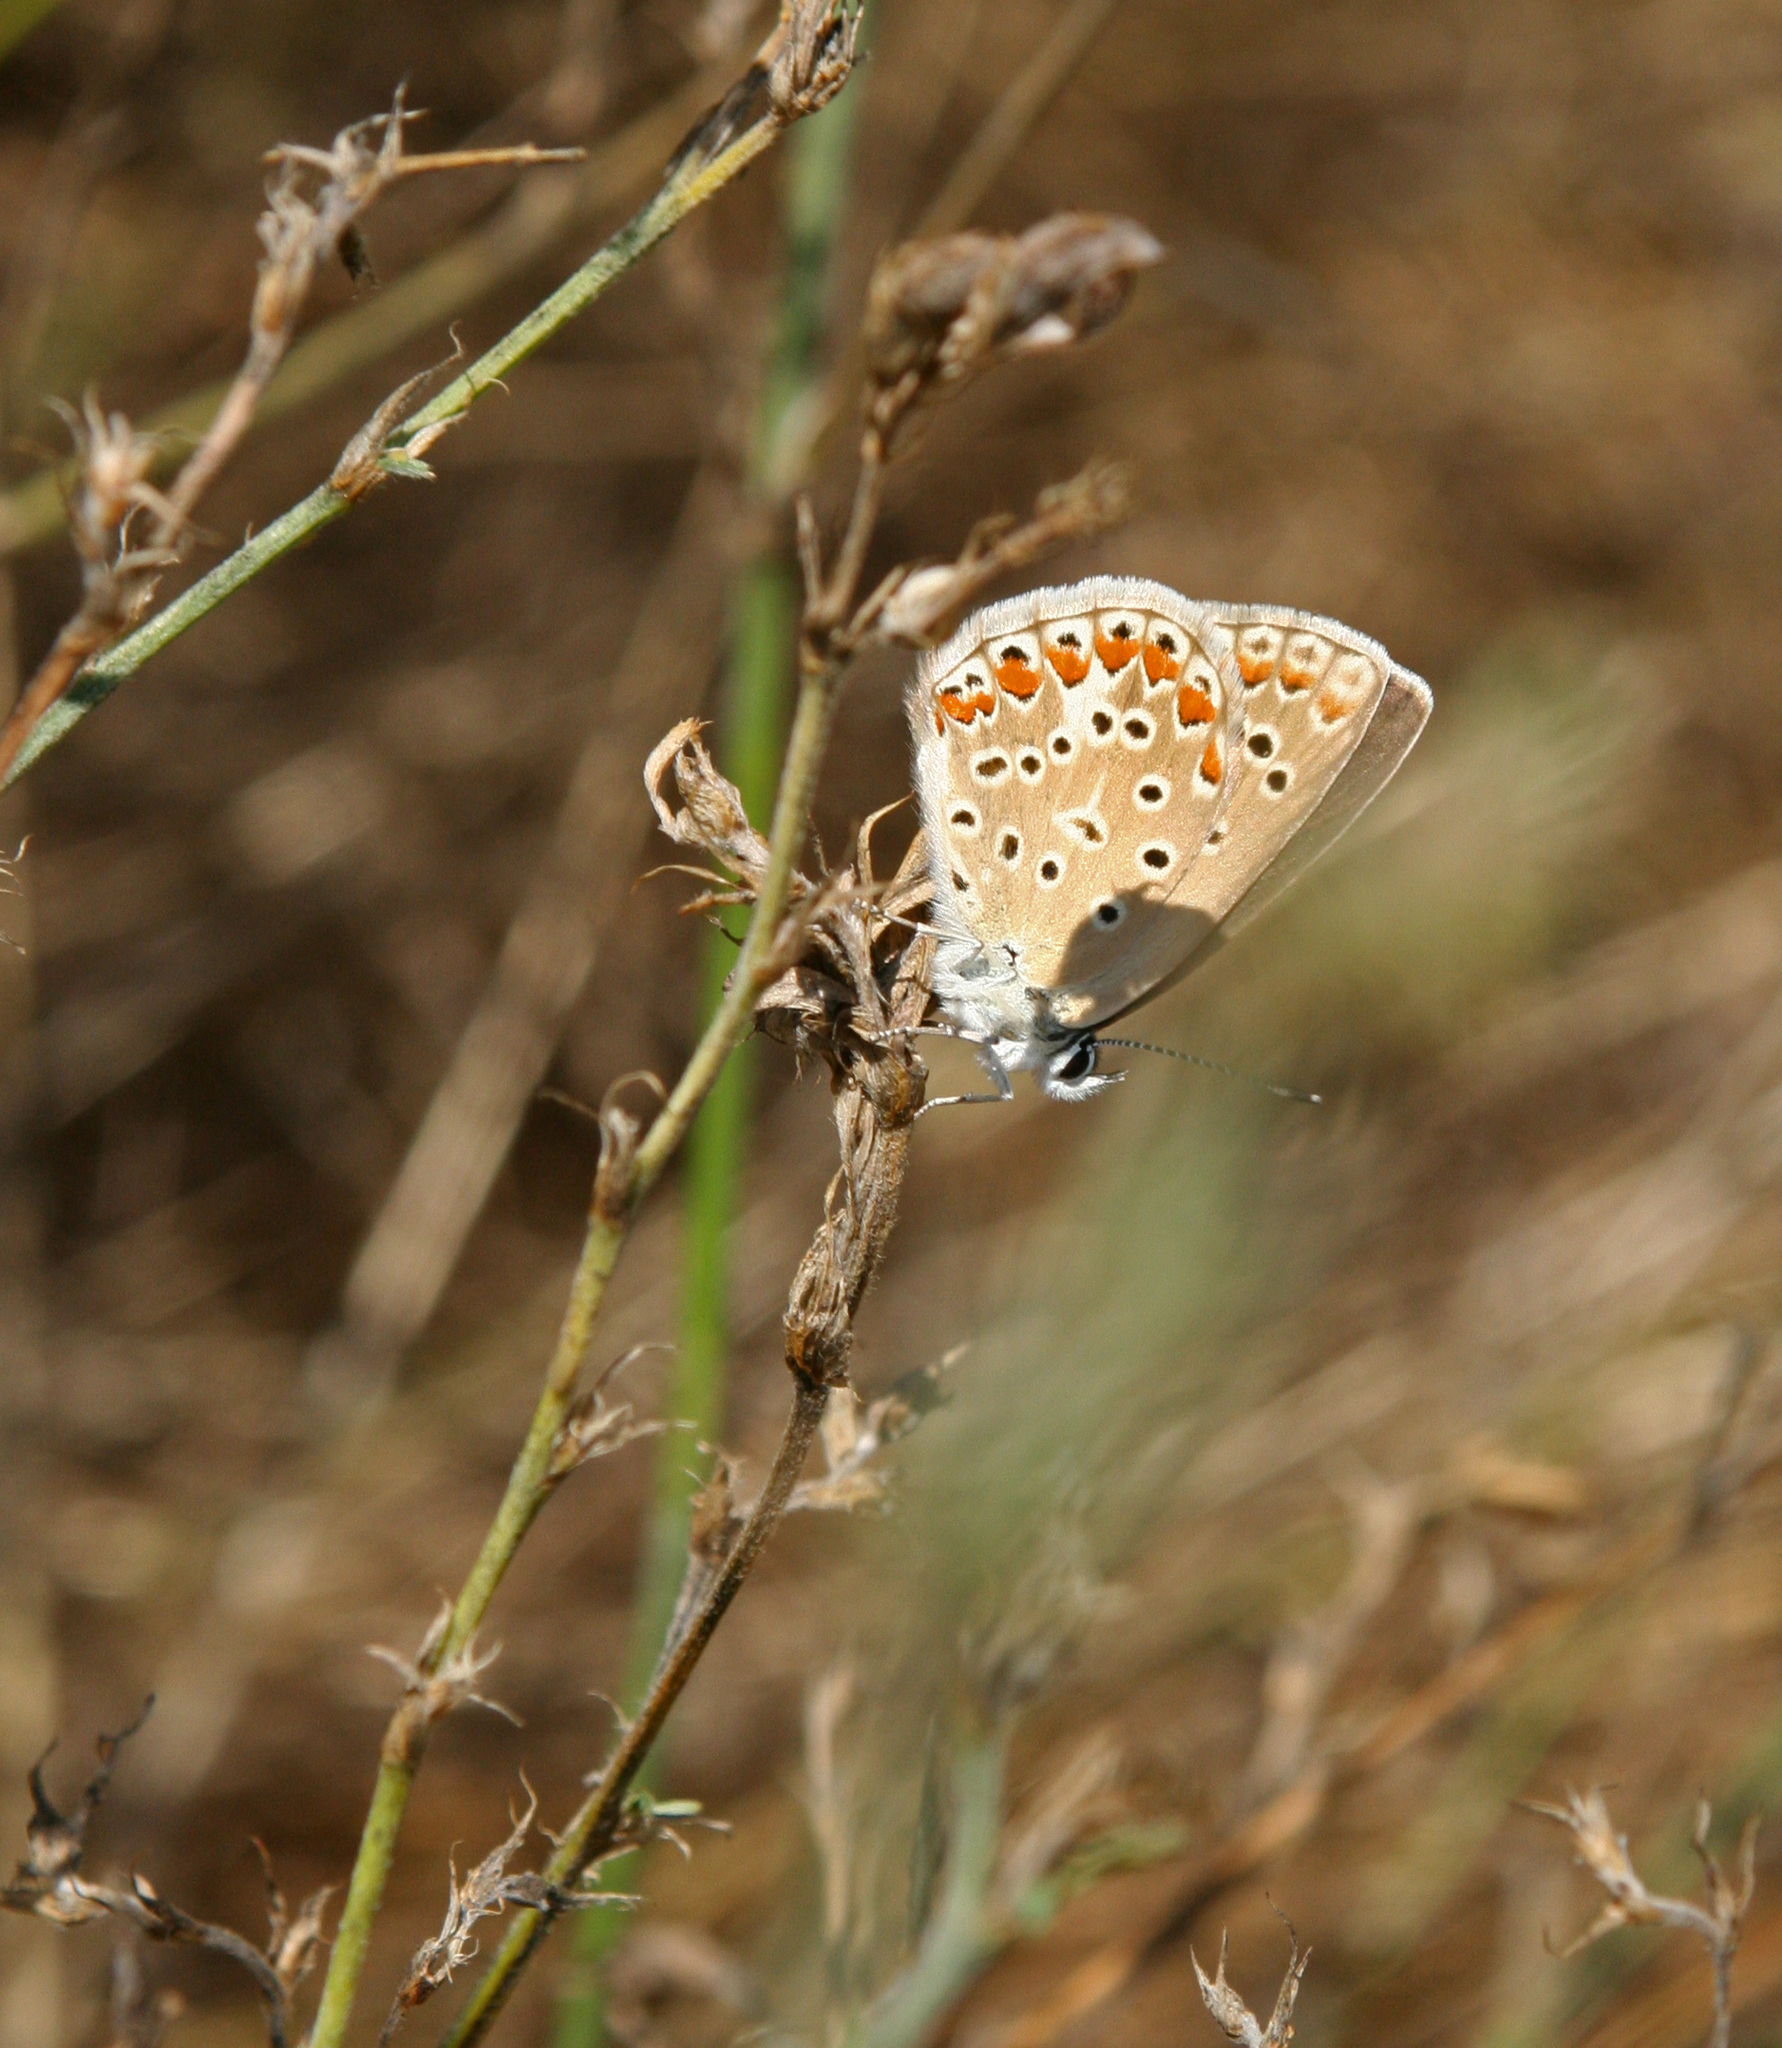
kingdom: Animalia
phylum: Arthropoda
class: Insecta
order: Lepidoptera
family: Lycaenidae
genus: Polyommatus
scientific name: Polyommatus icarus
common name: Common blue
